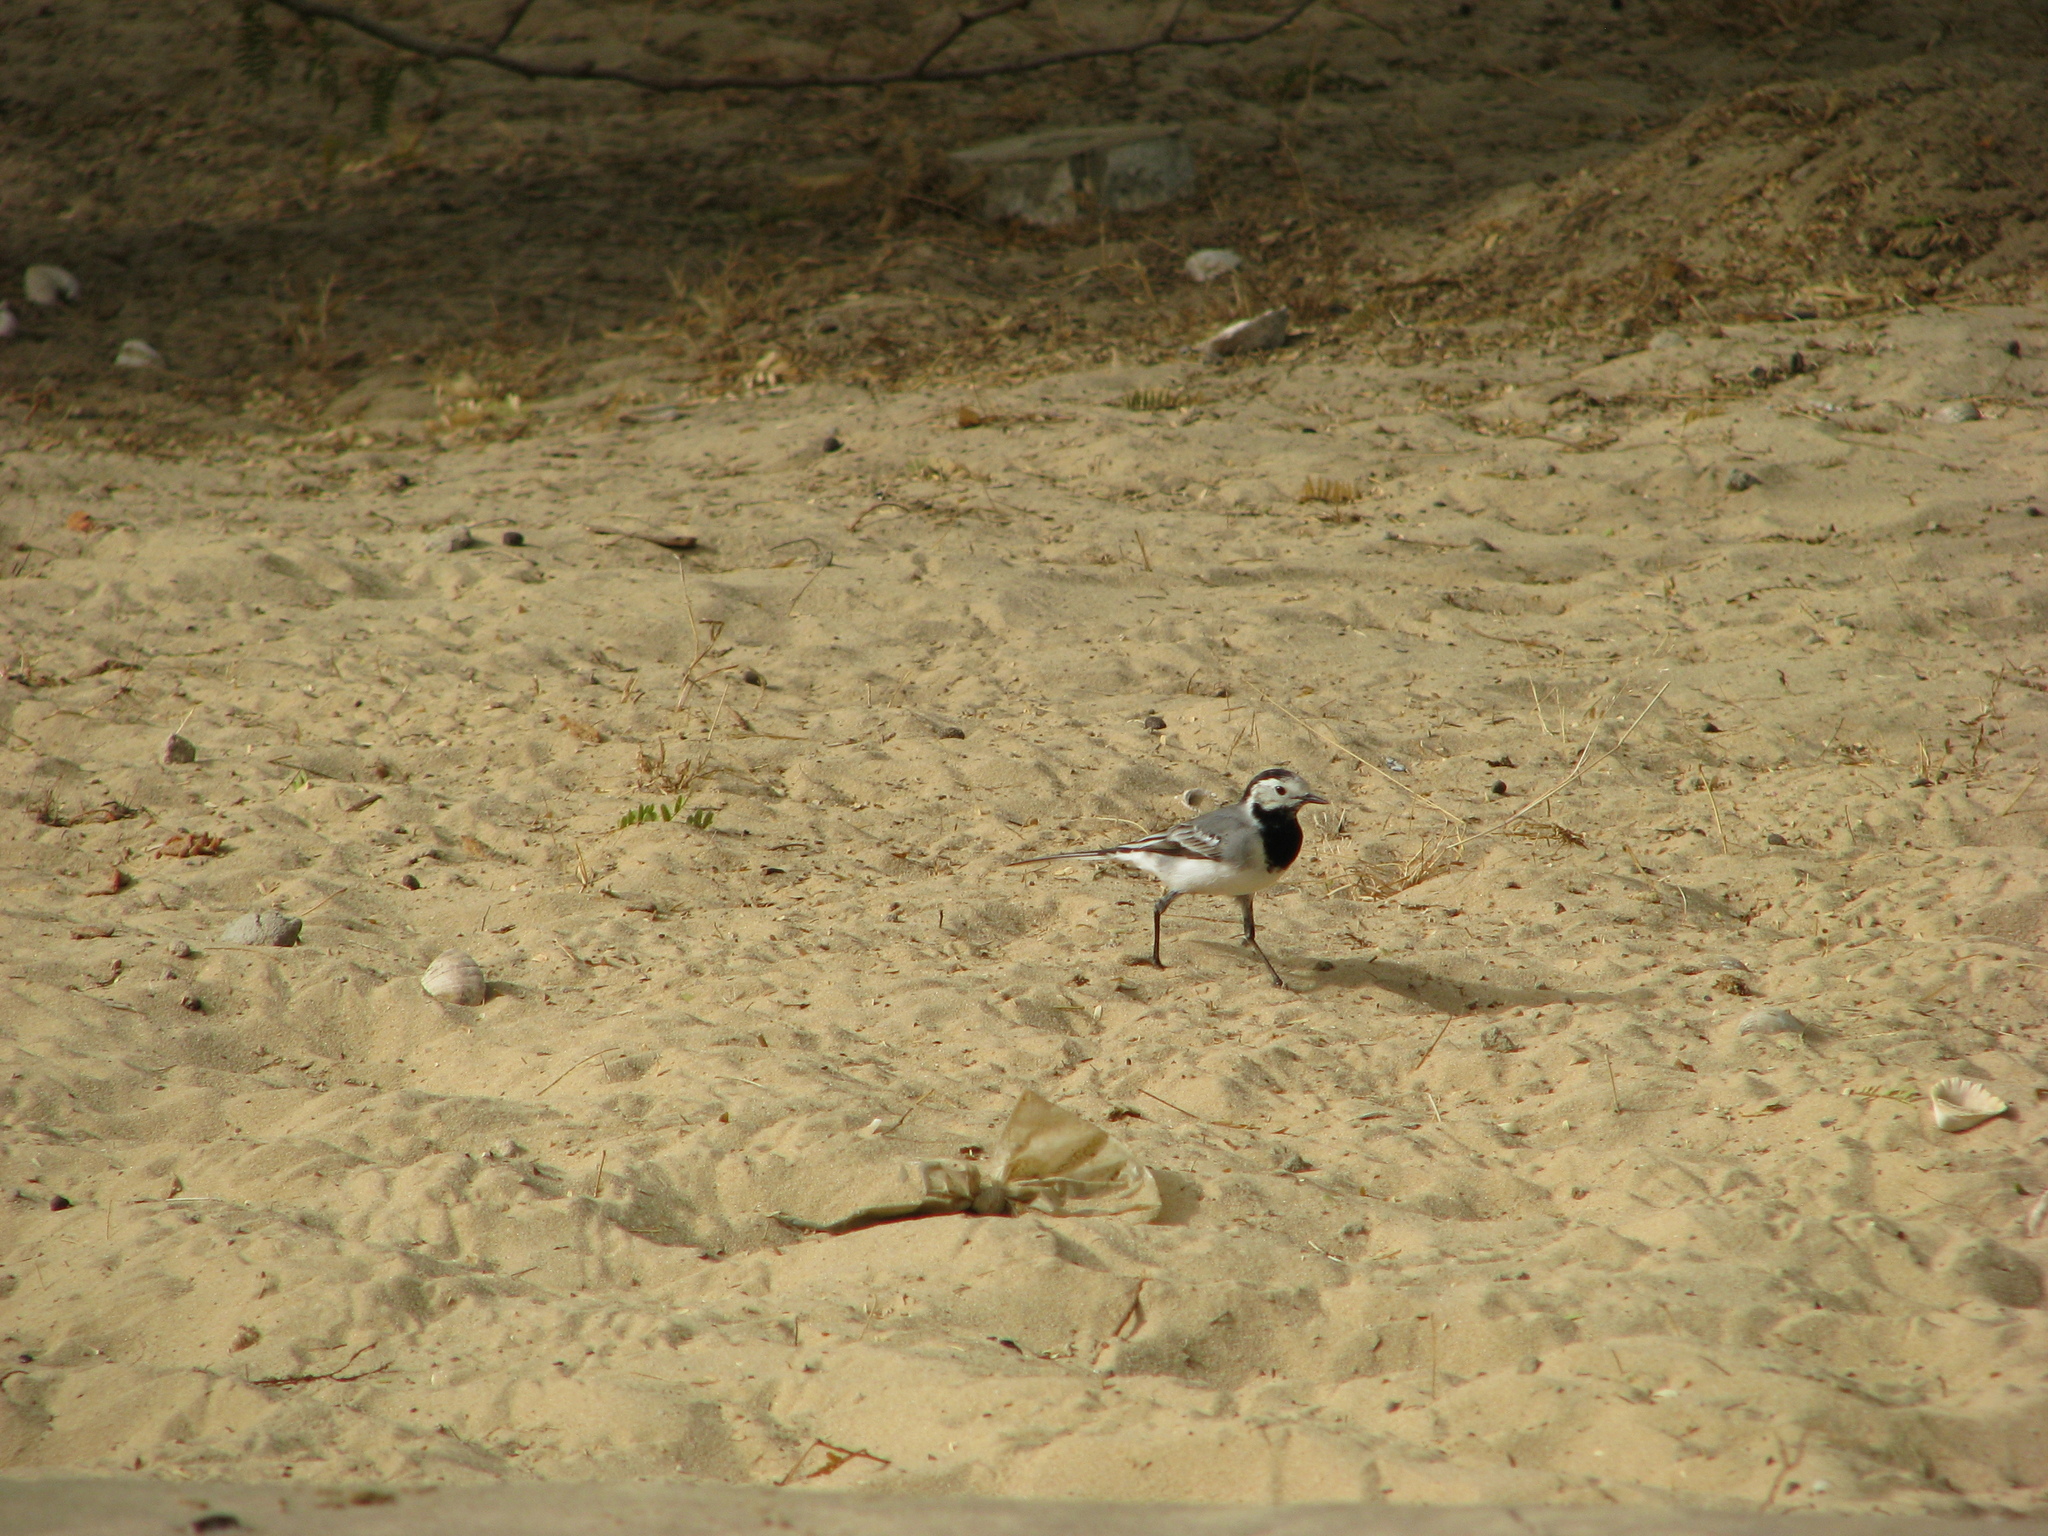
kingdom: Animalia
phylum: Chordata
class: Aves
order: Passeriformes
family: Motacillidae
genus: Motacilla
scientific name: Motacilla alba
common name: White wagtail
